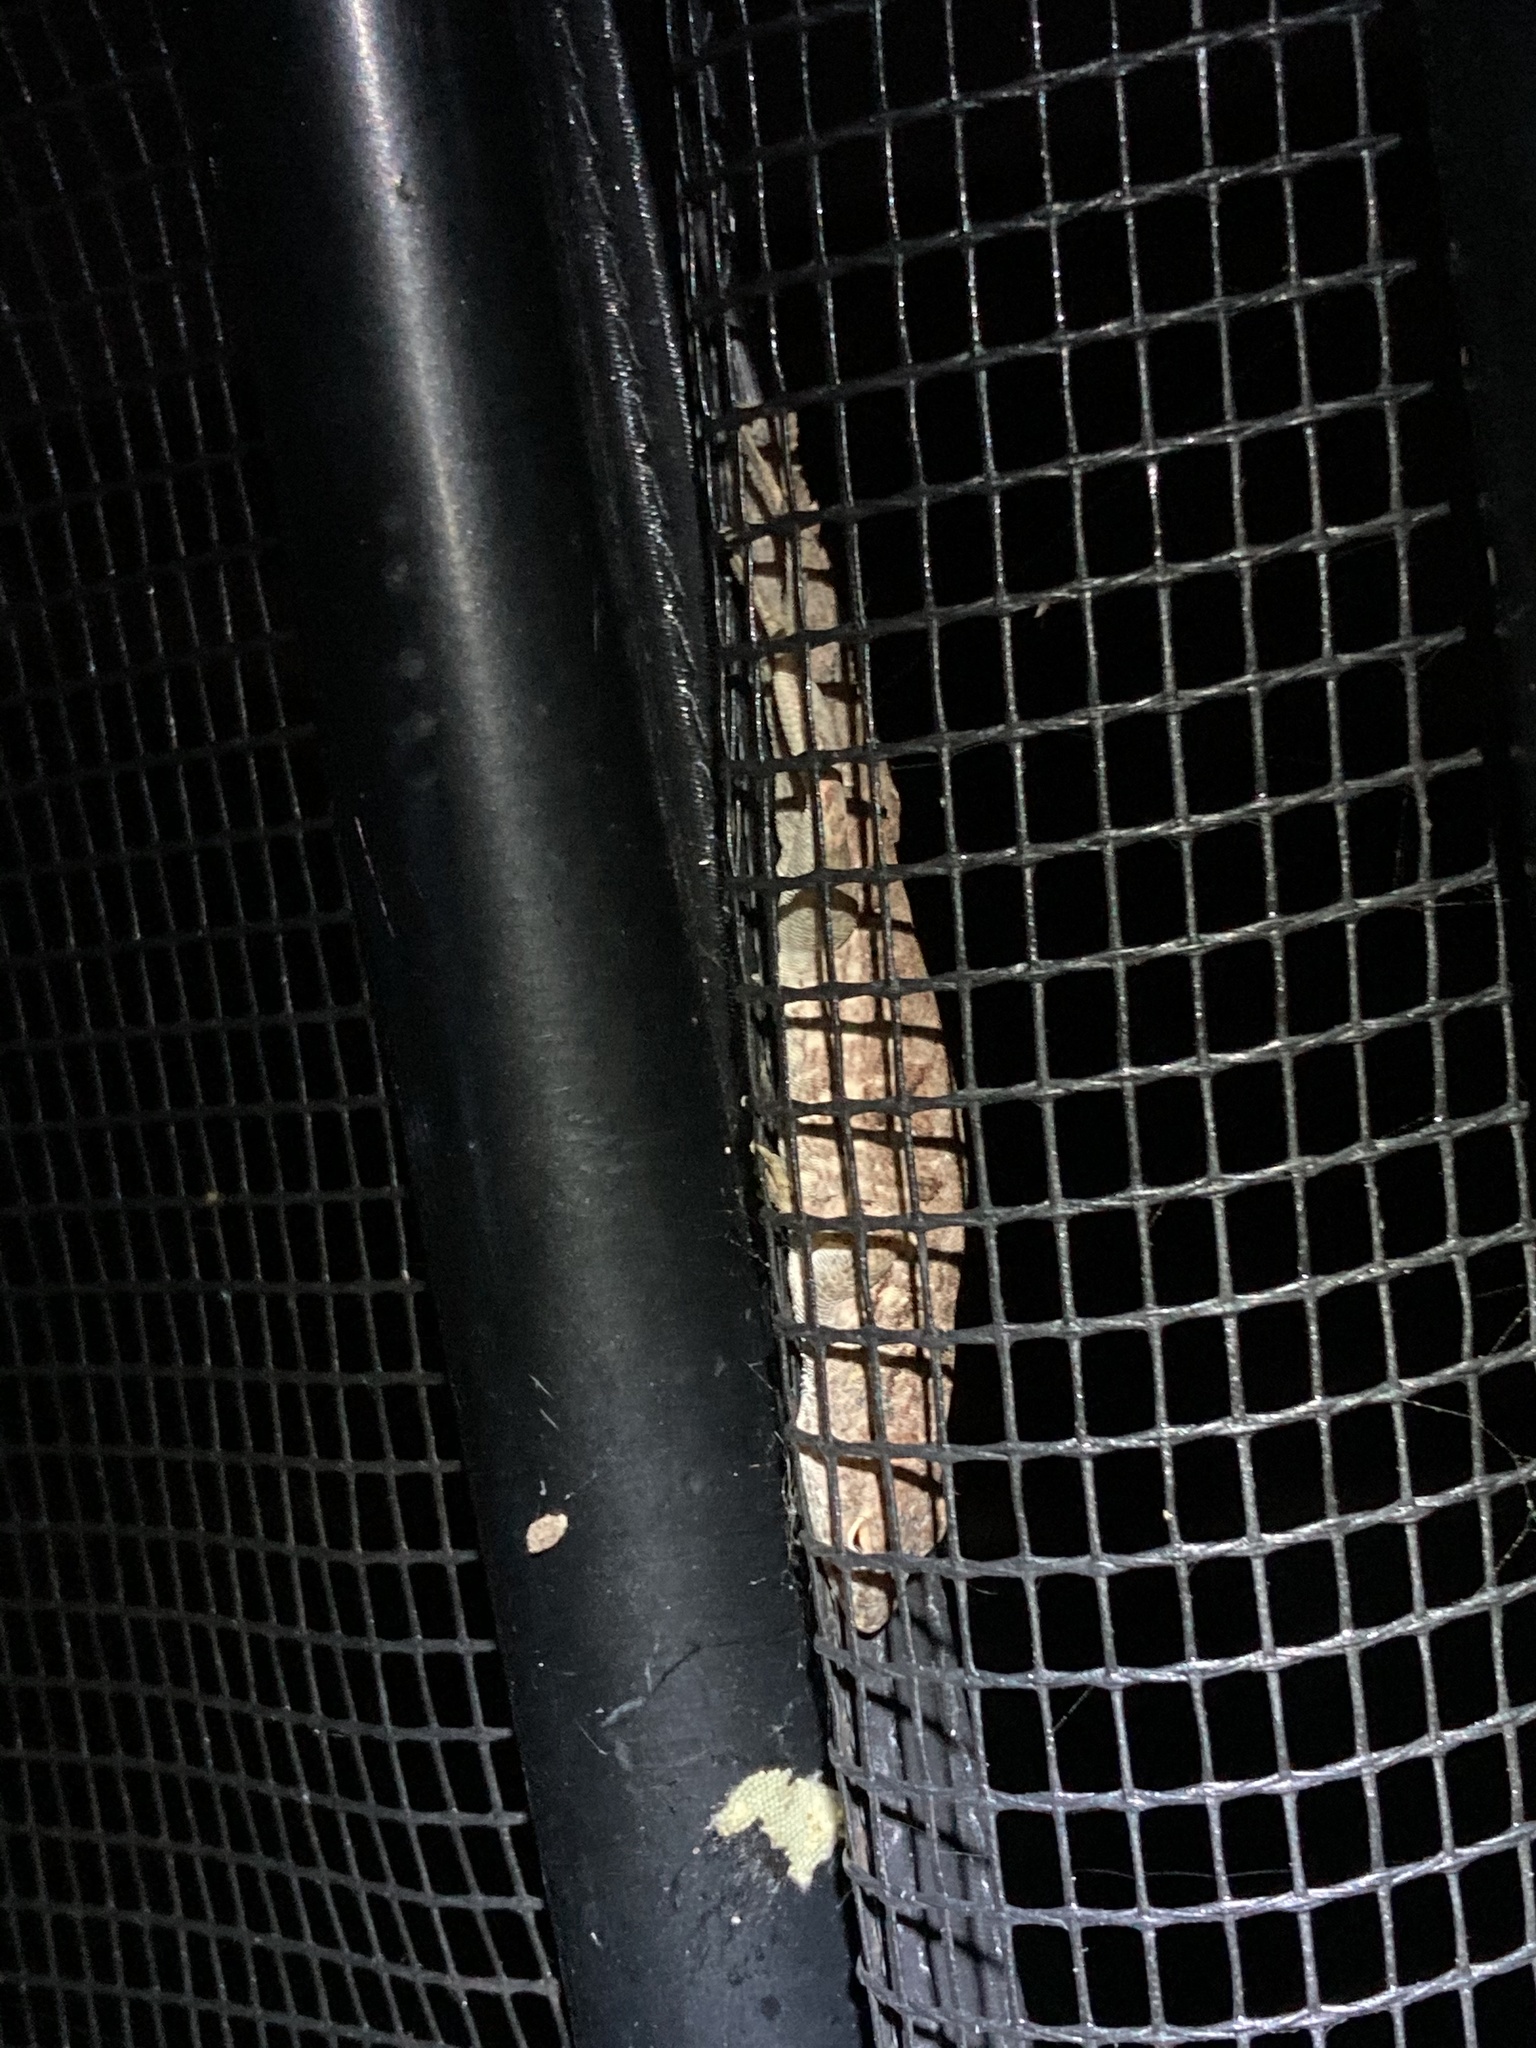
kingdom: Animalia
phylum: Chordata
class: Squamata
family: Dactyloidae
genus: Anolis
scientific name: Anolis sagrei
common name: Brown anole
